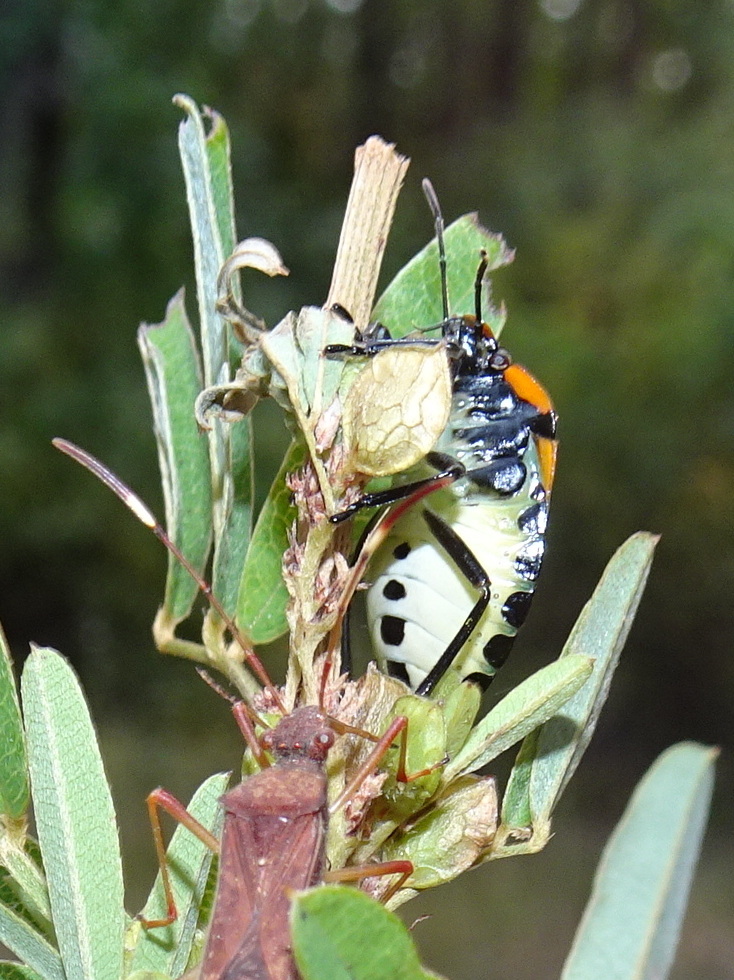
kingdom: Animalia
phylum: Arthropoda
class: Insecta
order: Hemiptera
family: Pentatomidae
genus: Chinavia
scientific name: Chinavia hilaris
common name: Green stink bug
